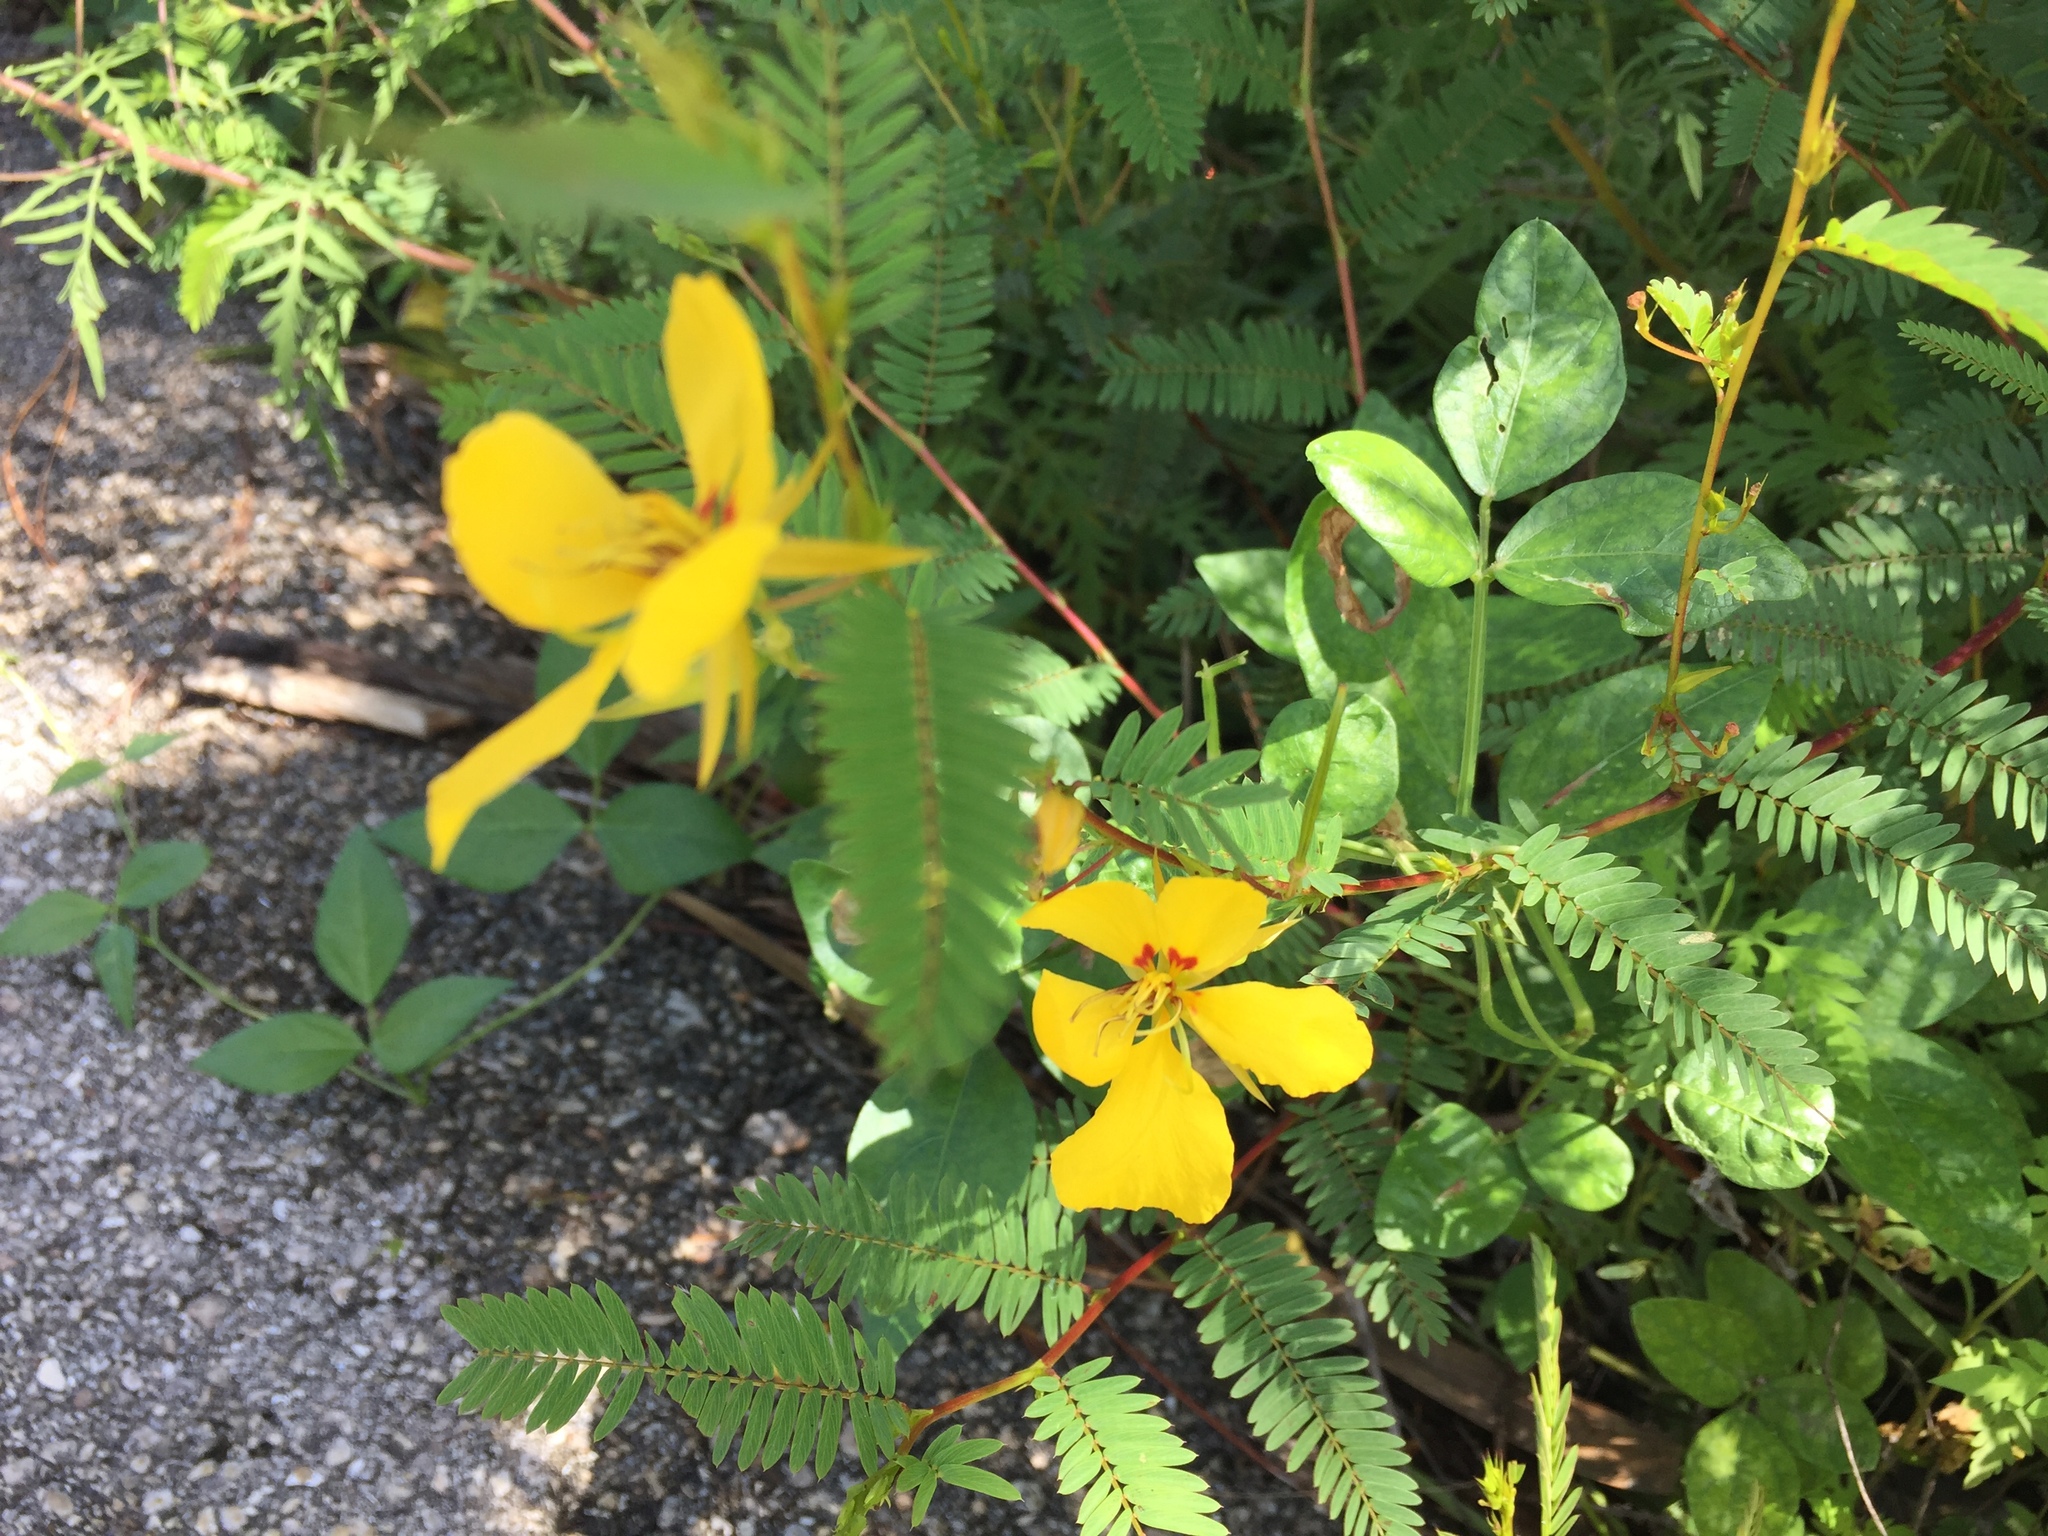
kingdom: Plantae
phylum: Tracheophyta
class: Magnoliopsida
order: Fabales
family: Fabaceae
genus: Chamaecrista
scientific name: Chamaecrista fasciculata
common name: Golden cassia
